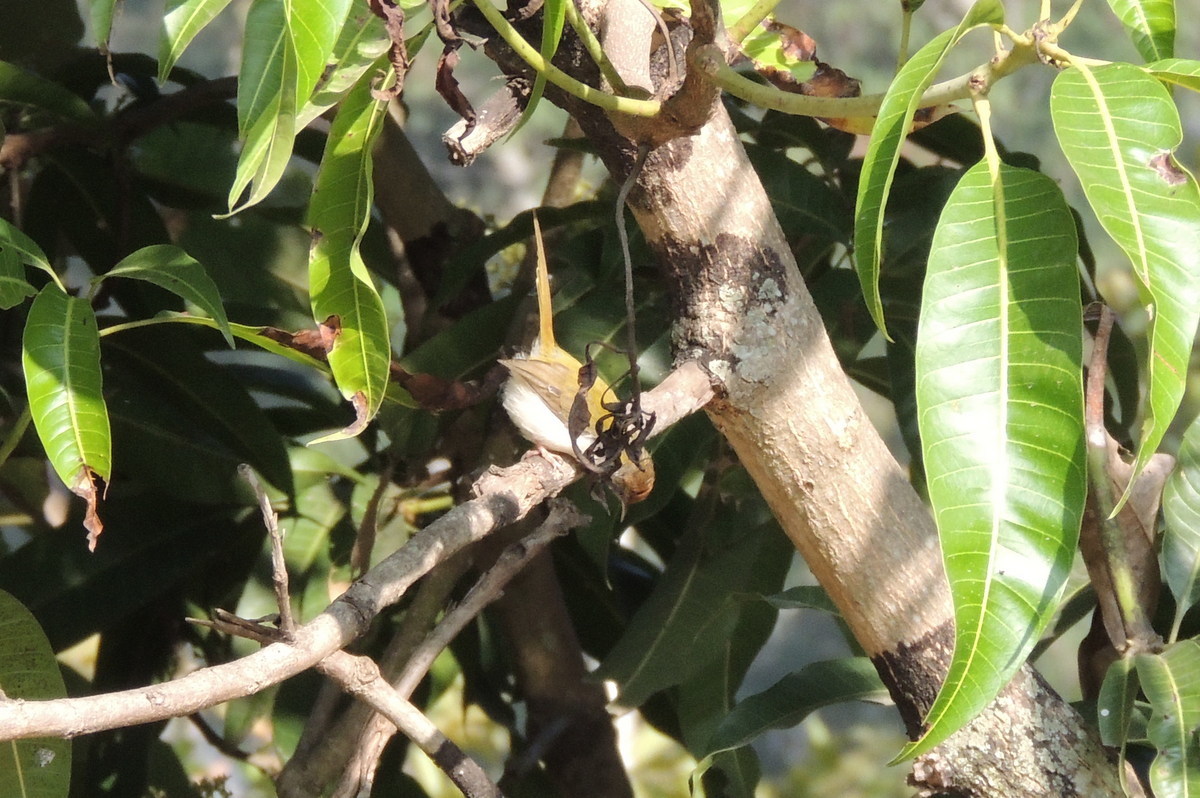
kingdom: Animalia
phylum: Chordata
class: Aves
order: Passeriformes
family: Cisticolidae
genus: Orthotomus
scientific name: Orthotomus sutorius
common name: Common tailorbird
